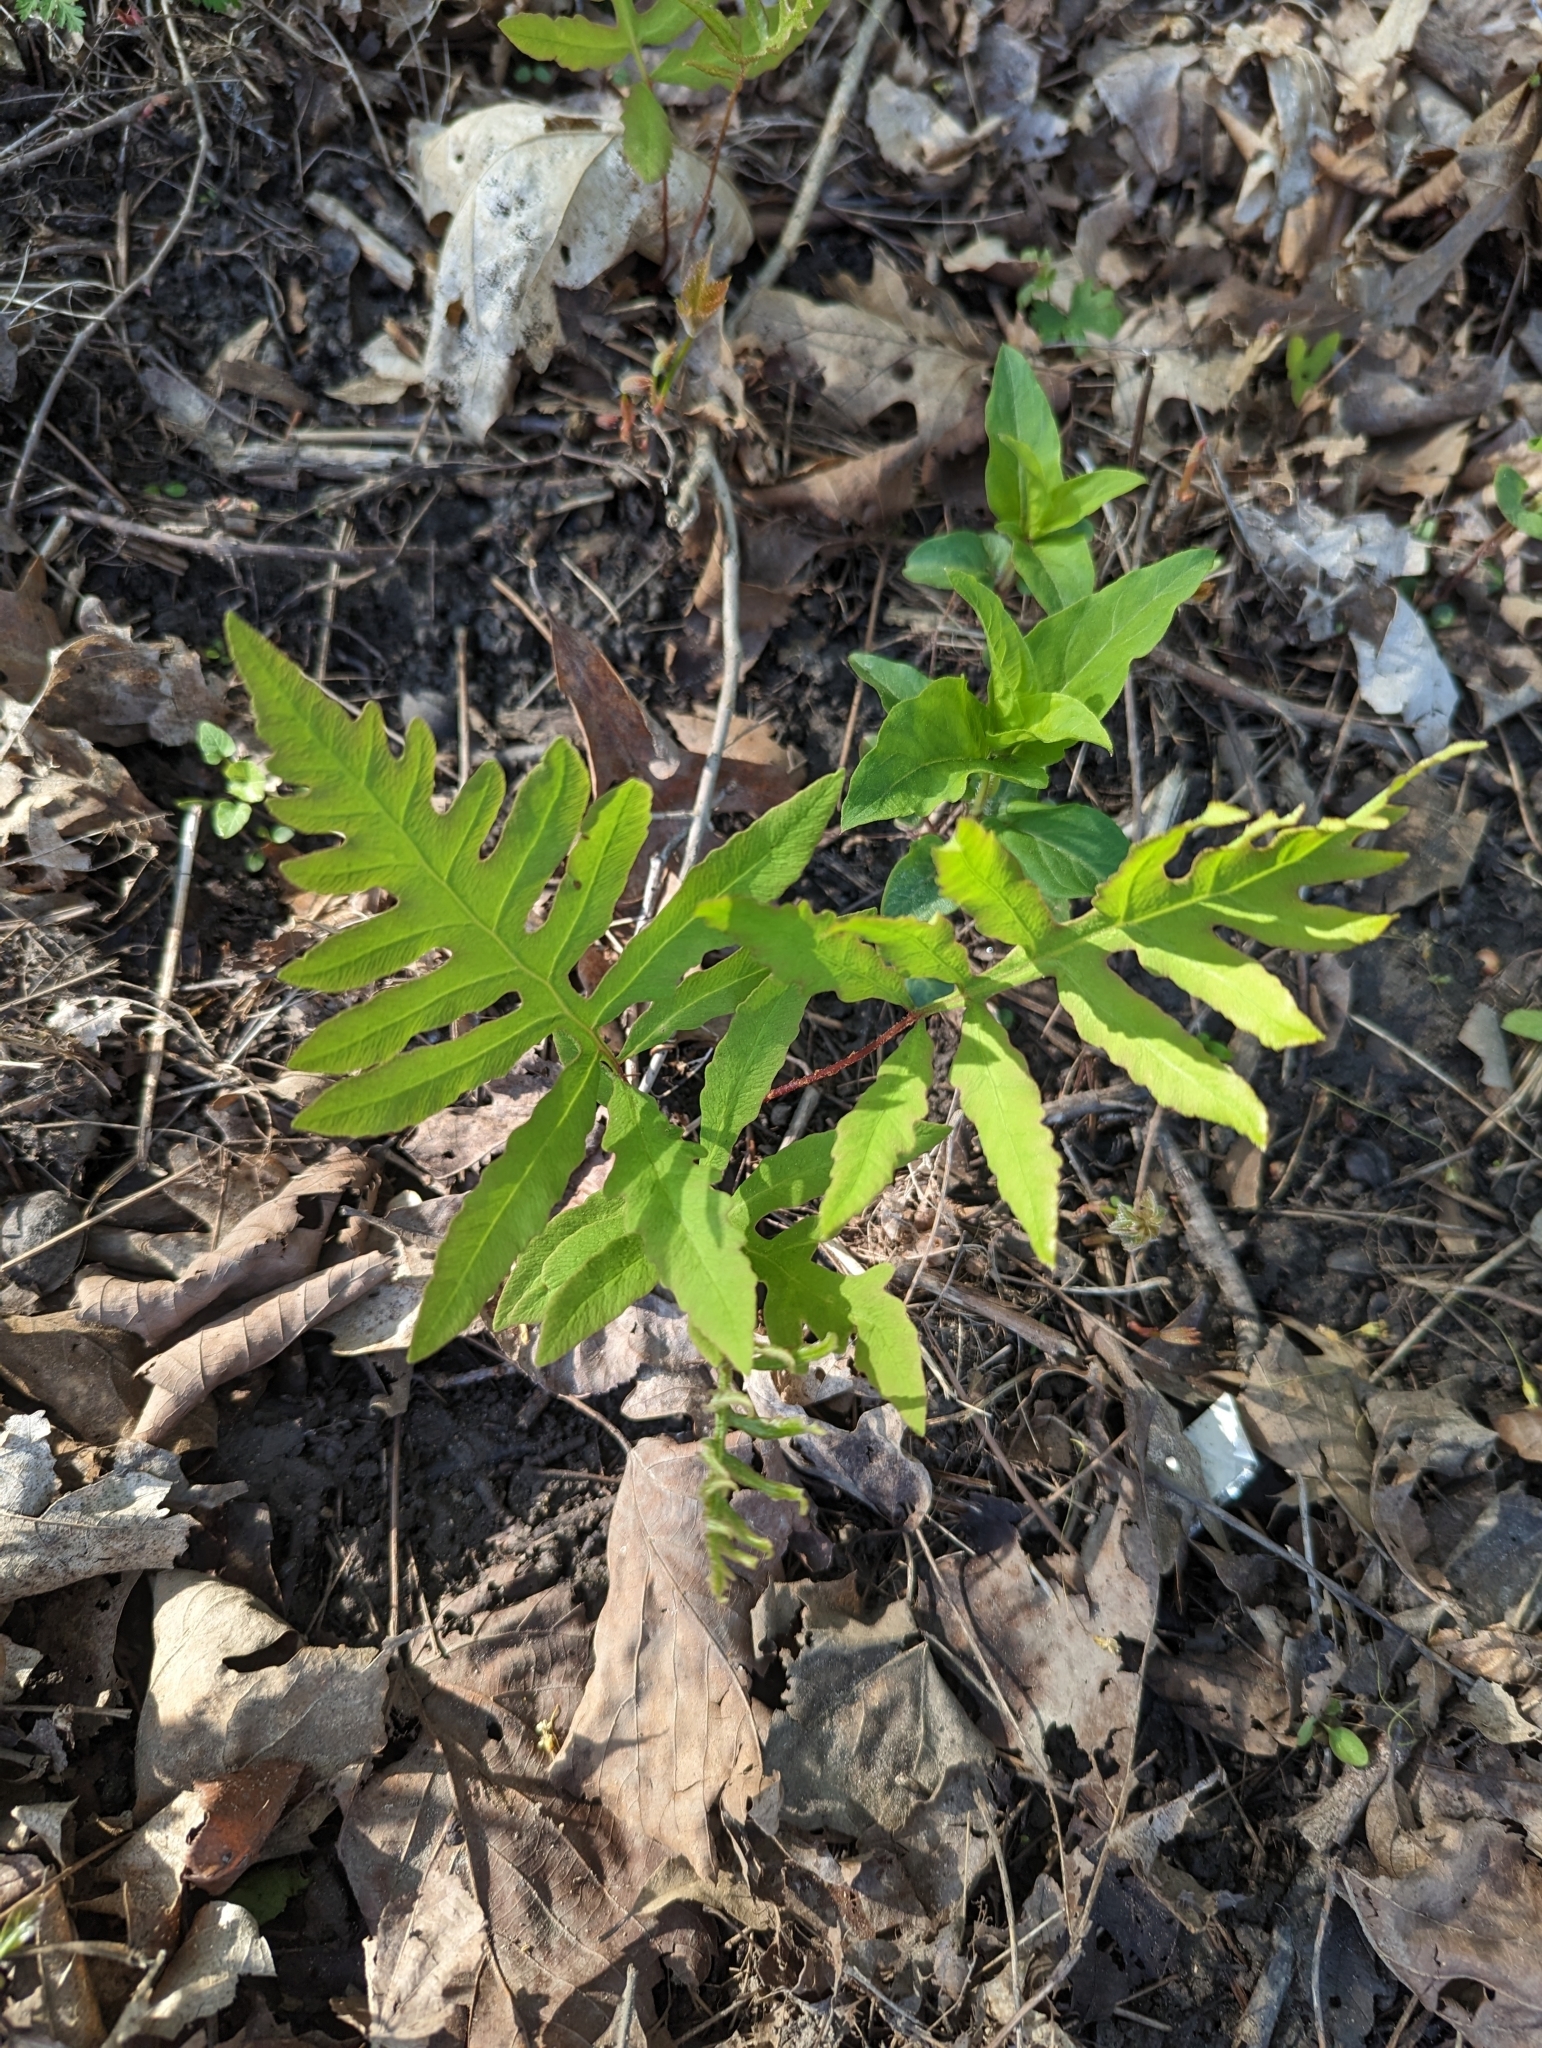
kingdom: Plantae
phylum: Tracheophyta
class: Polypodiopsida
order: Polypodiales
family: Onocleaceae
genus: Onoclea
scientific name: Onoclea sensibilis
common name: Sensitive fern
